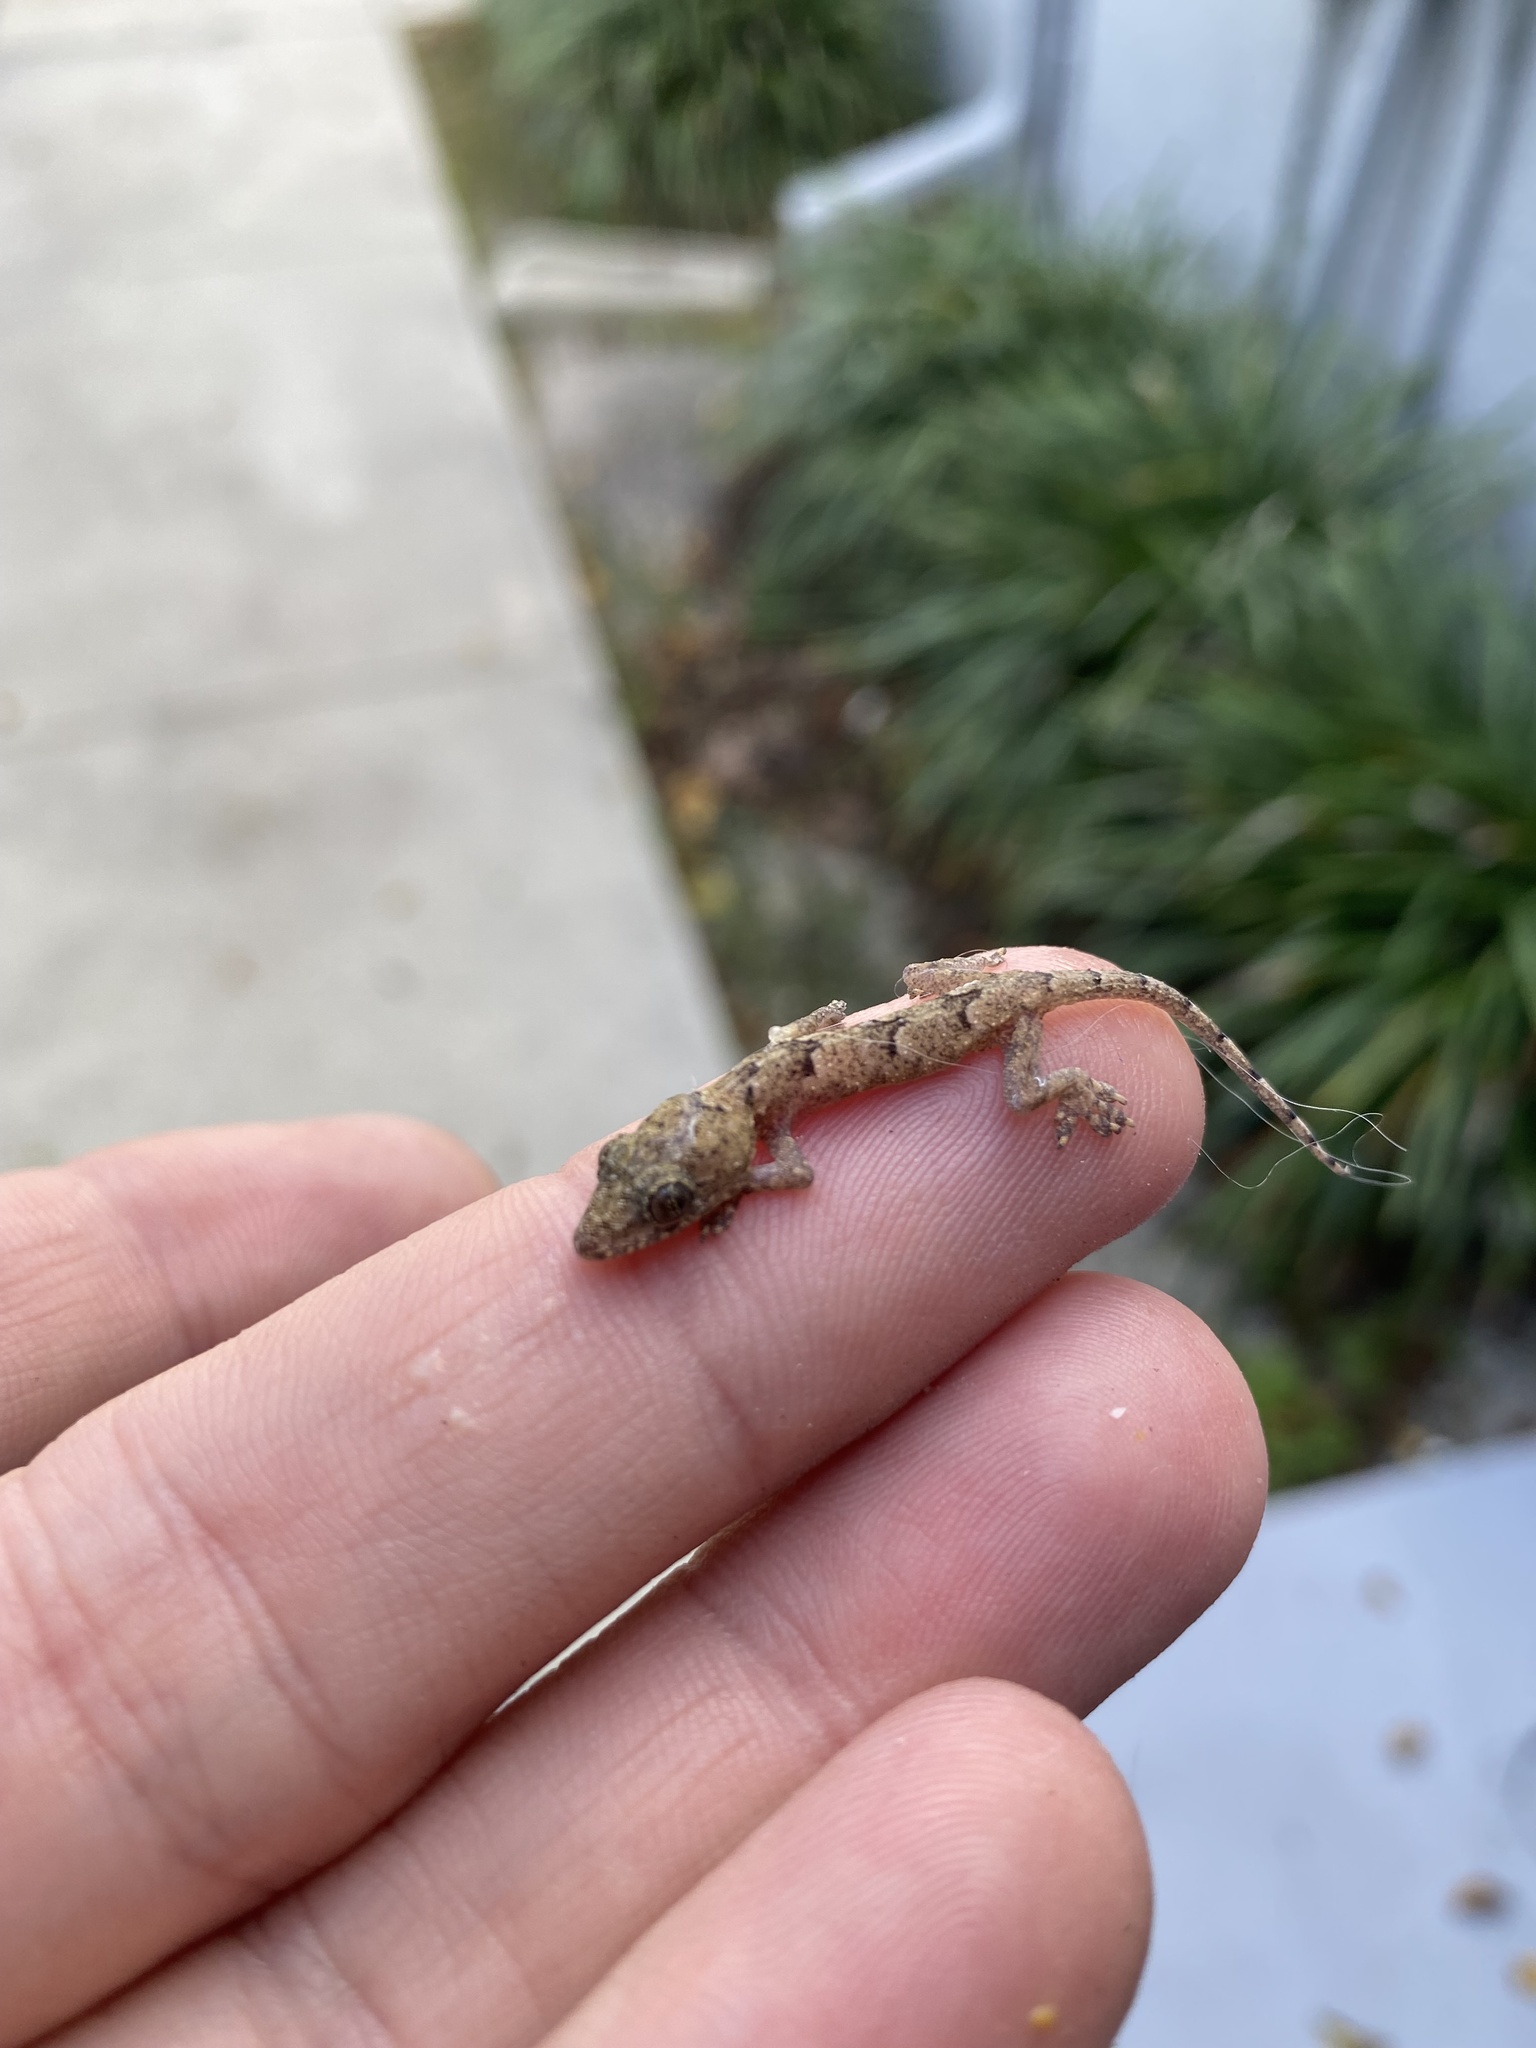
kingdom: Animalia
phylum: Chordata
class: Squamata
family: Gekkonidae
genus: Hemidactylus
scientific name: Hemidactylus mabouia
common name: House gecko
